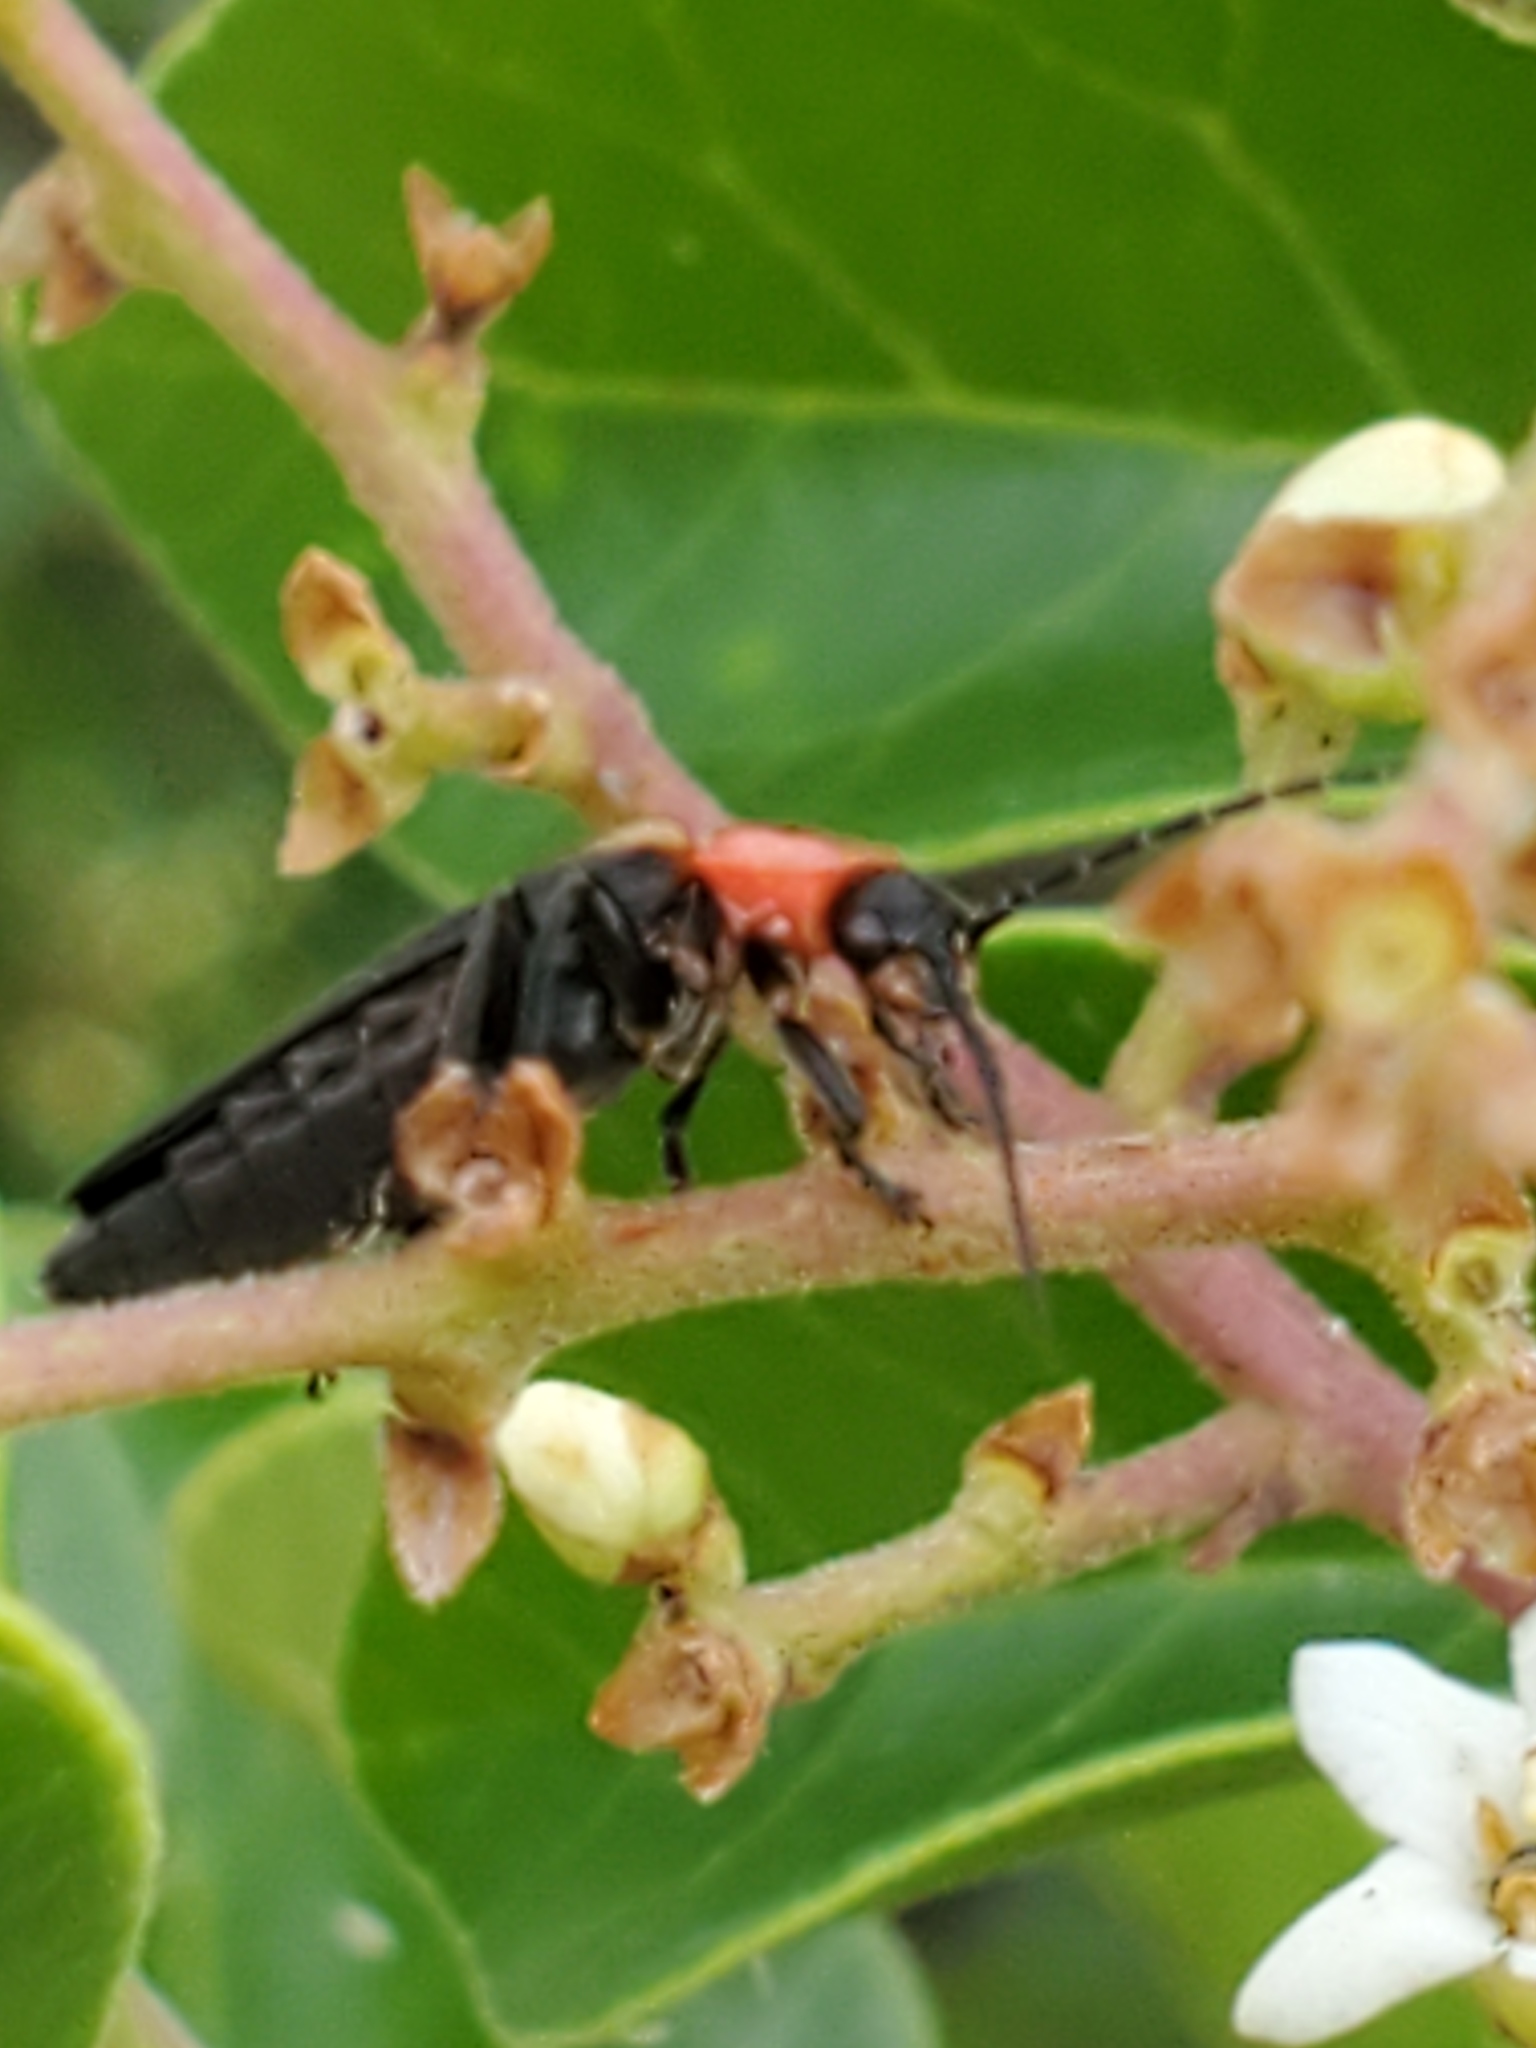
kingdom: Animalia
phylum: Arthropoda
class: Insecta
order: Coleoptera
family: Cantharidae
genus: Discodon
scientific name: Discodon planicolle
